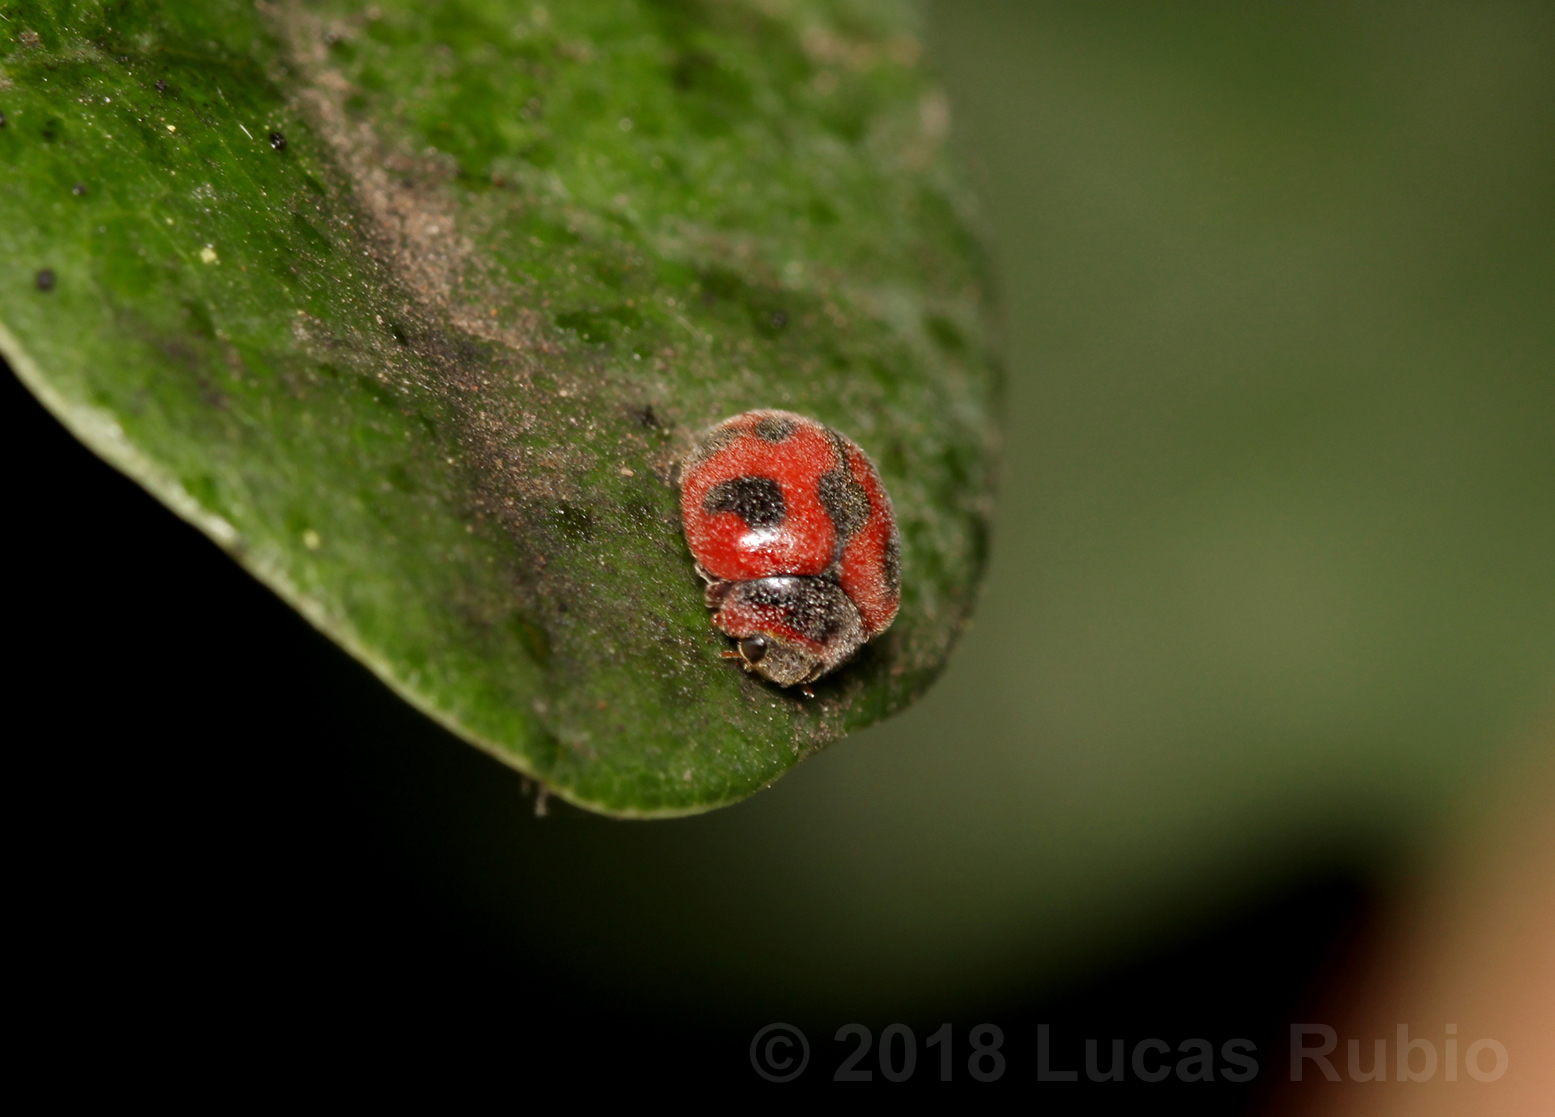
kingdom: Animalia
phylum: Arthropoda
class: Insecta
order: Coleoptera
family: Coccinellidae
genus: Novius
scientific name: Novius cardinalis
